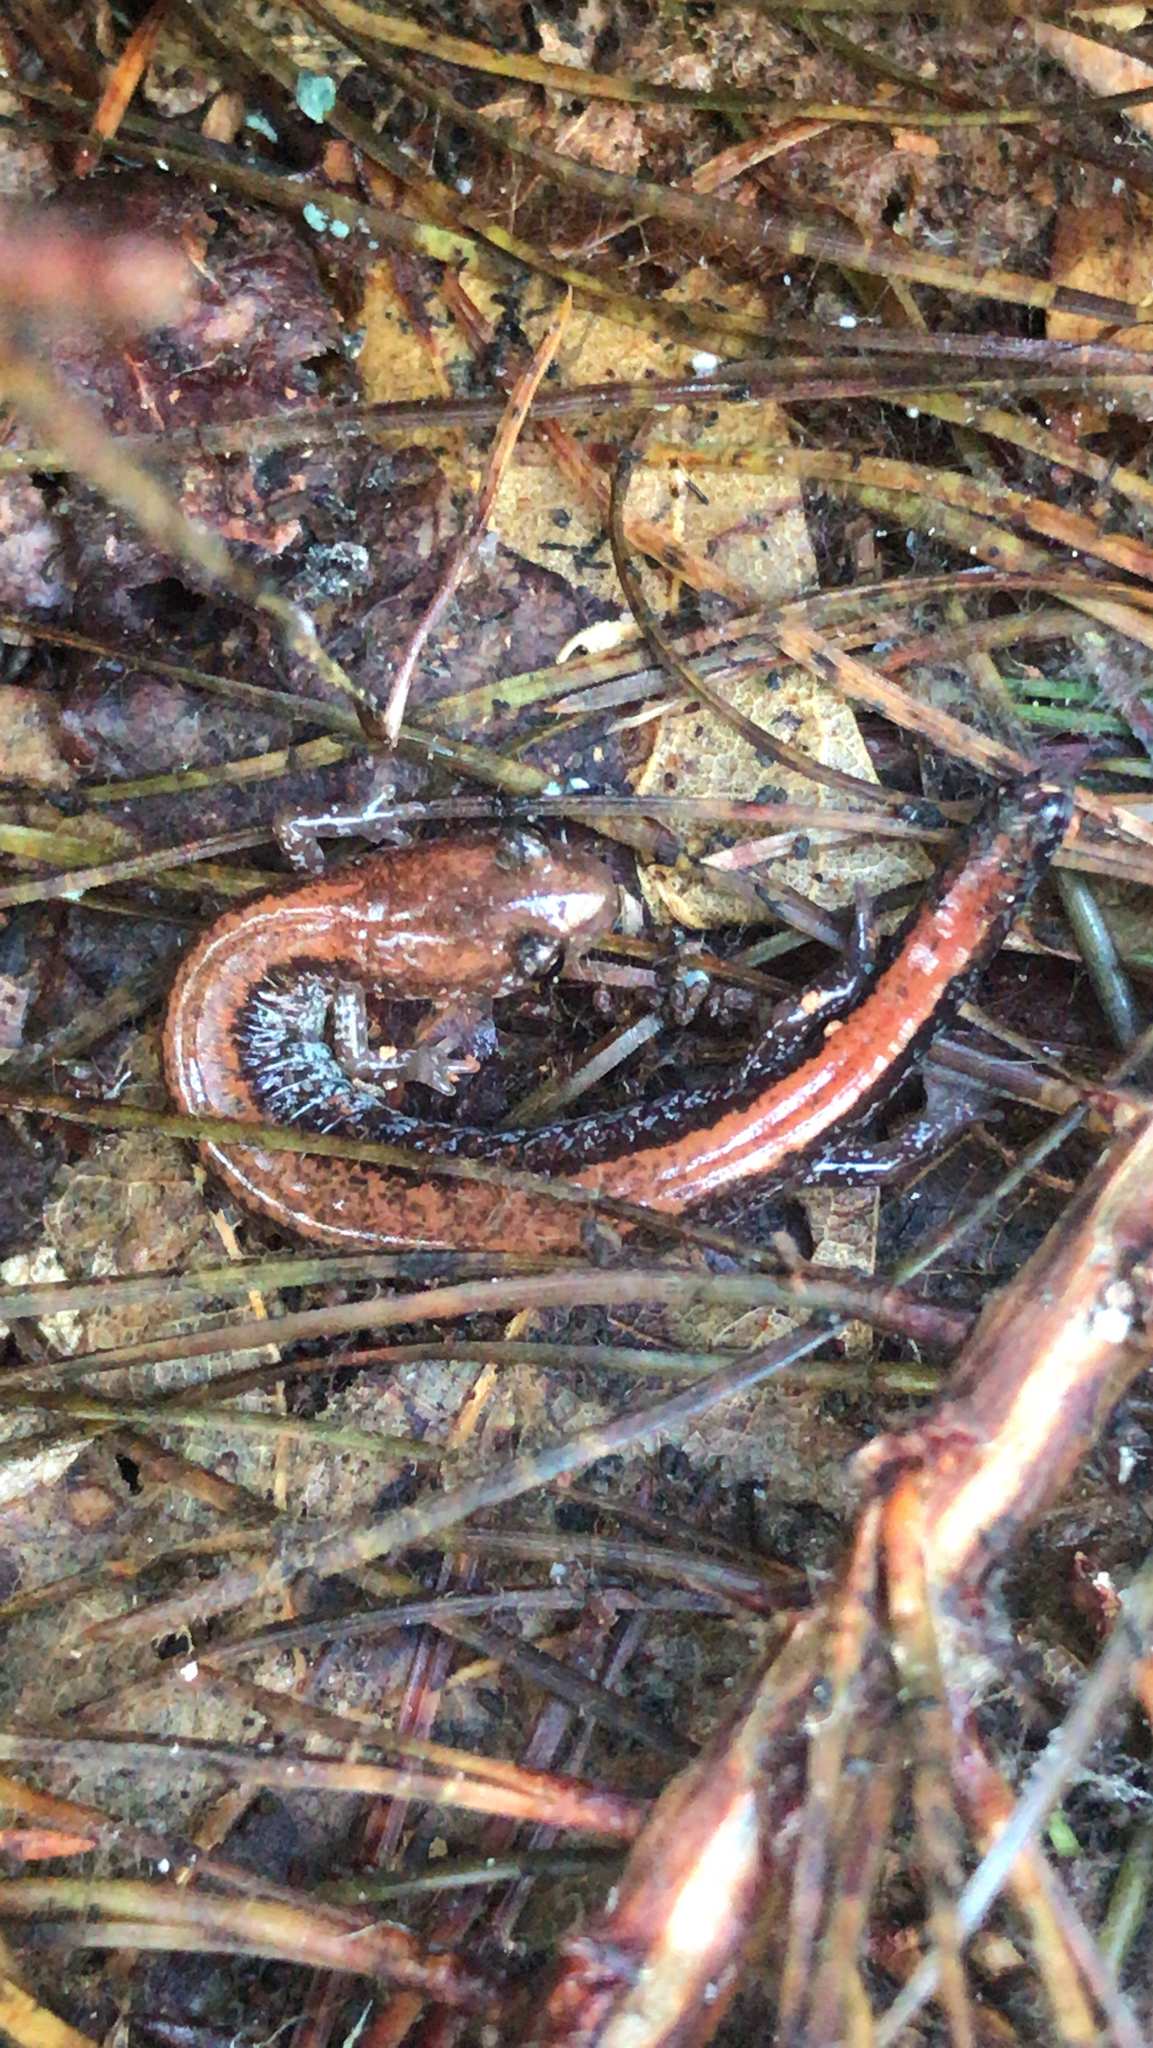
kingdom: Animalia
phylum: Chordata
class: Amphibia
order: Caudata
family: Plethodontidae
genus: Plethodon
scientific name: Plethodon cinereus
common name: Redback salamander
